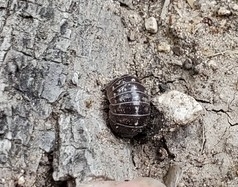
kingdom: Animalia
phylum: Arthropoda
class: Malacostraca
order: Isopoda
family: Armadillidiidae
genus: Armadillidium
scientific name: Armadillidium vulgare
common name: Common pill woodlouse
